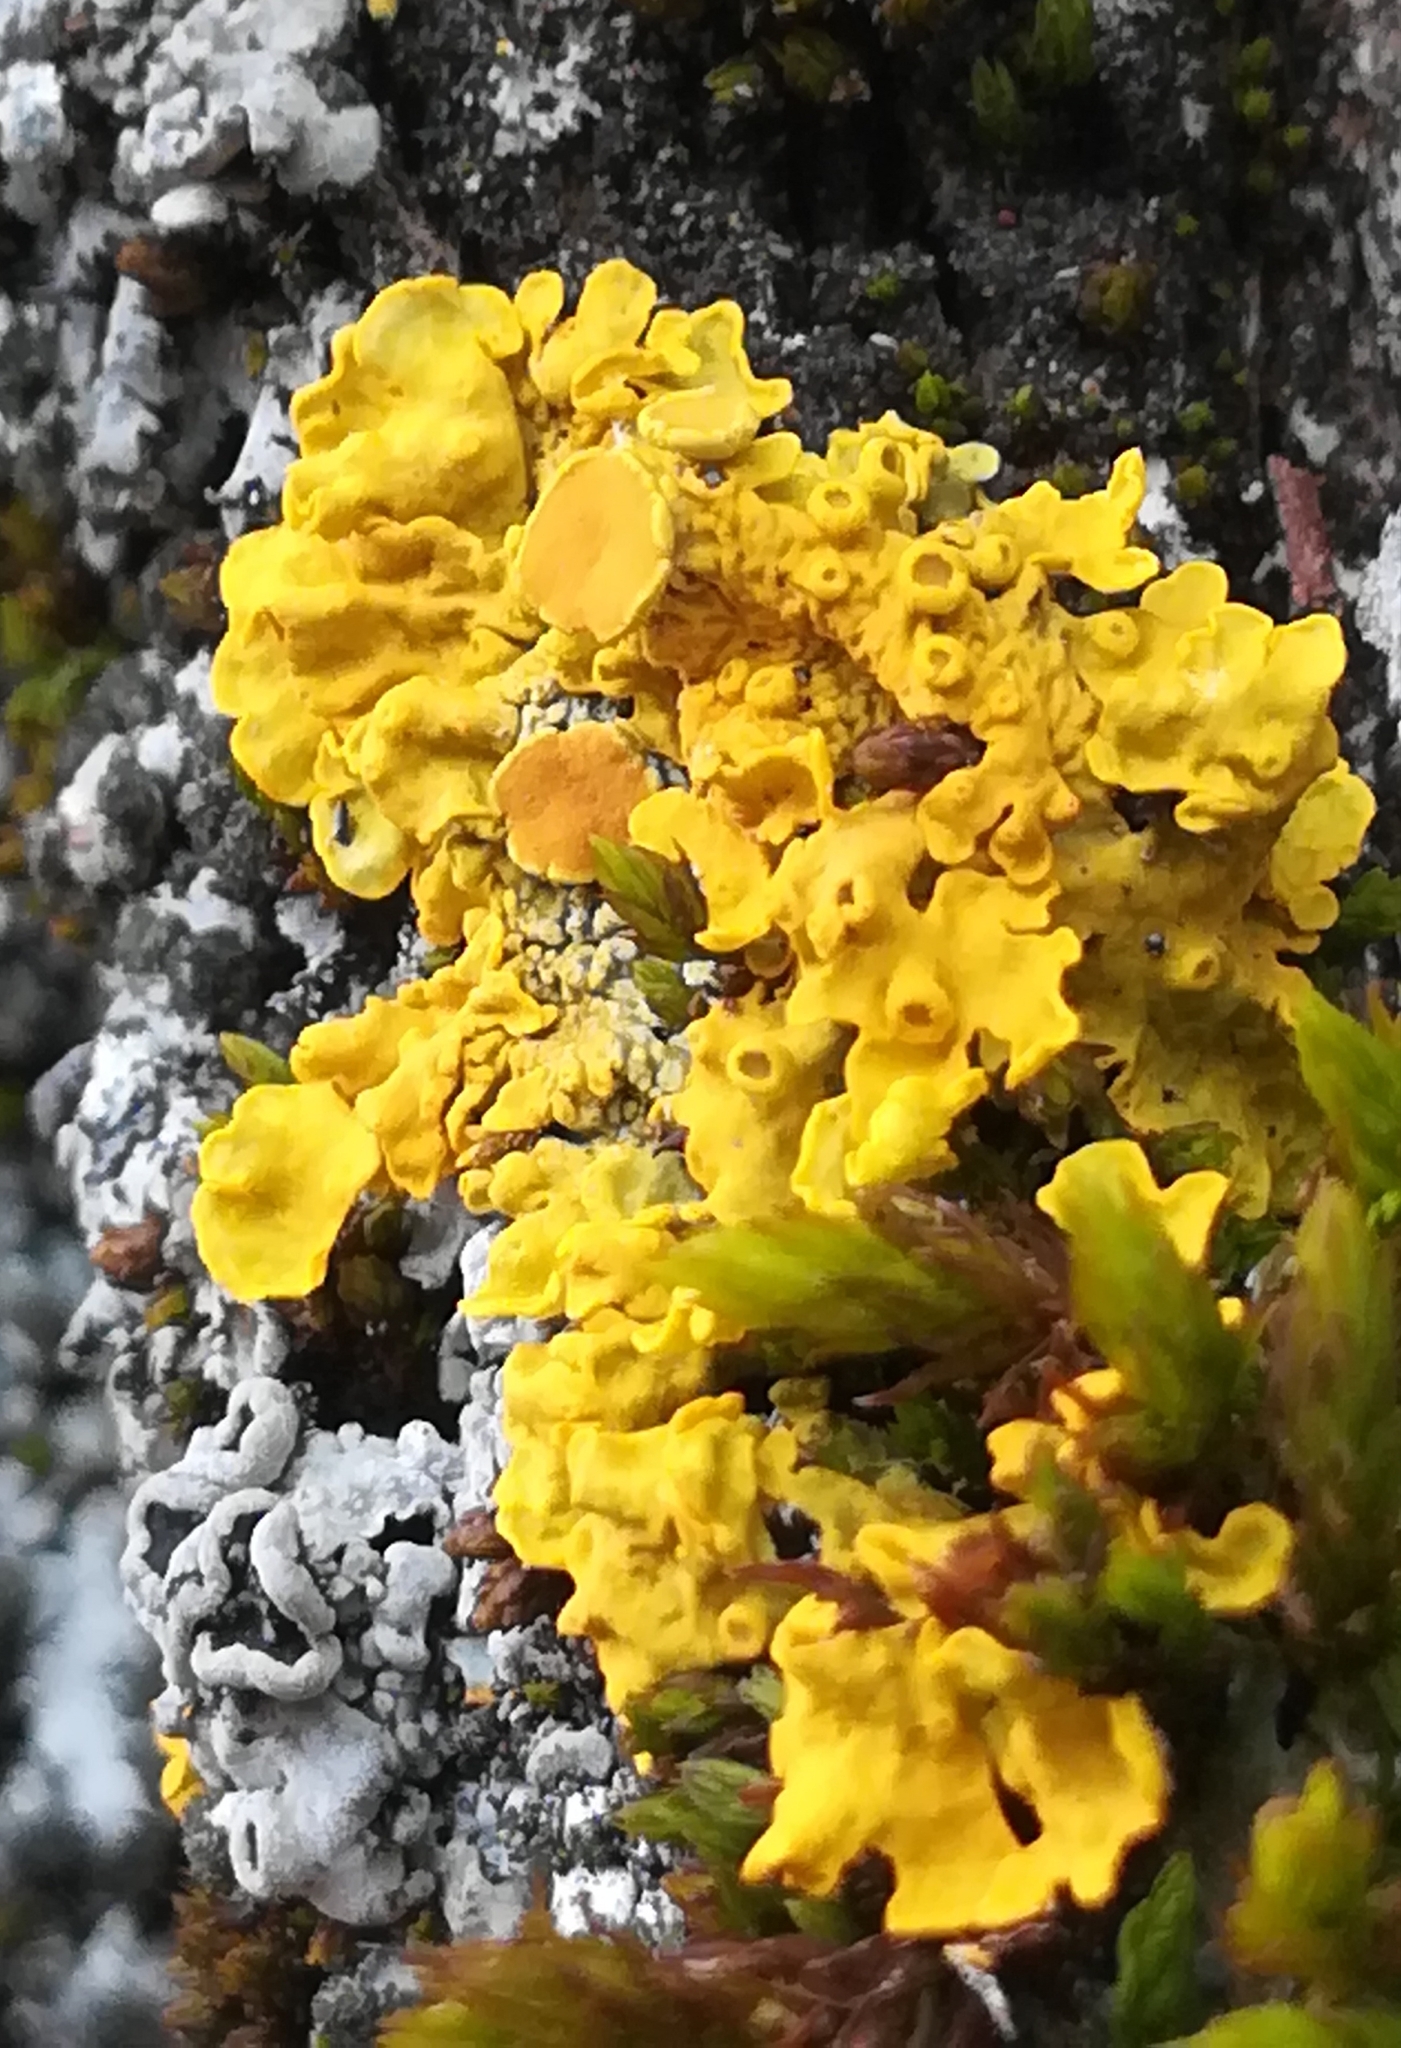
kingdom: Fungi
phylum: Ascomycota
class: Lecanoromycetes
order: Teloschistales
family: Teloschistaceae
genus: Xanthoria
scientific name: Xanthoria parietina
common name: Common orange lichen
